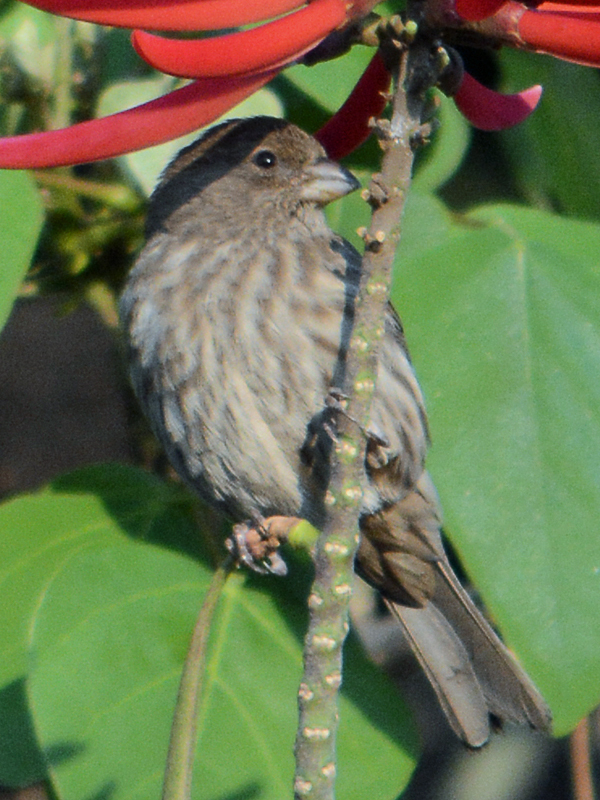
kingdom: Animalia
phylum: Chordata
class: Aves
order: Passeriformes
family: Fringillidae
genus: Haemorhous
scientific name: Haemorhous mexicanus
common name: House finch
